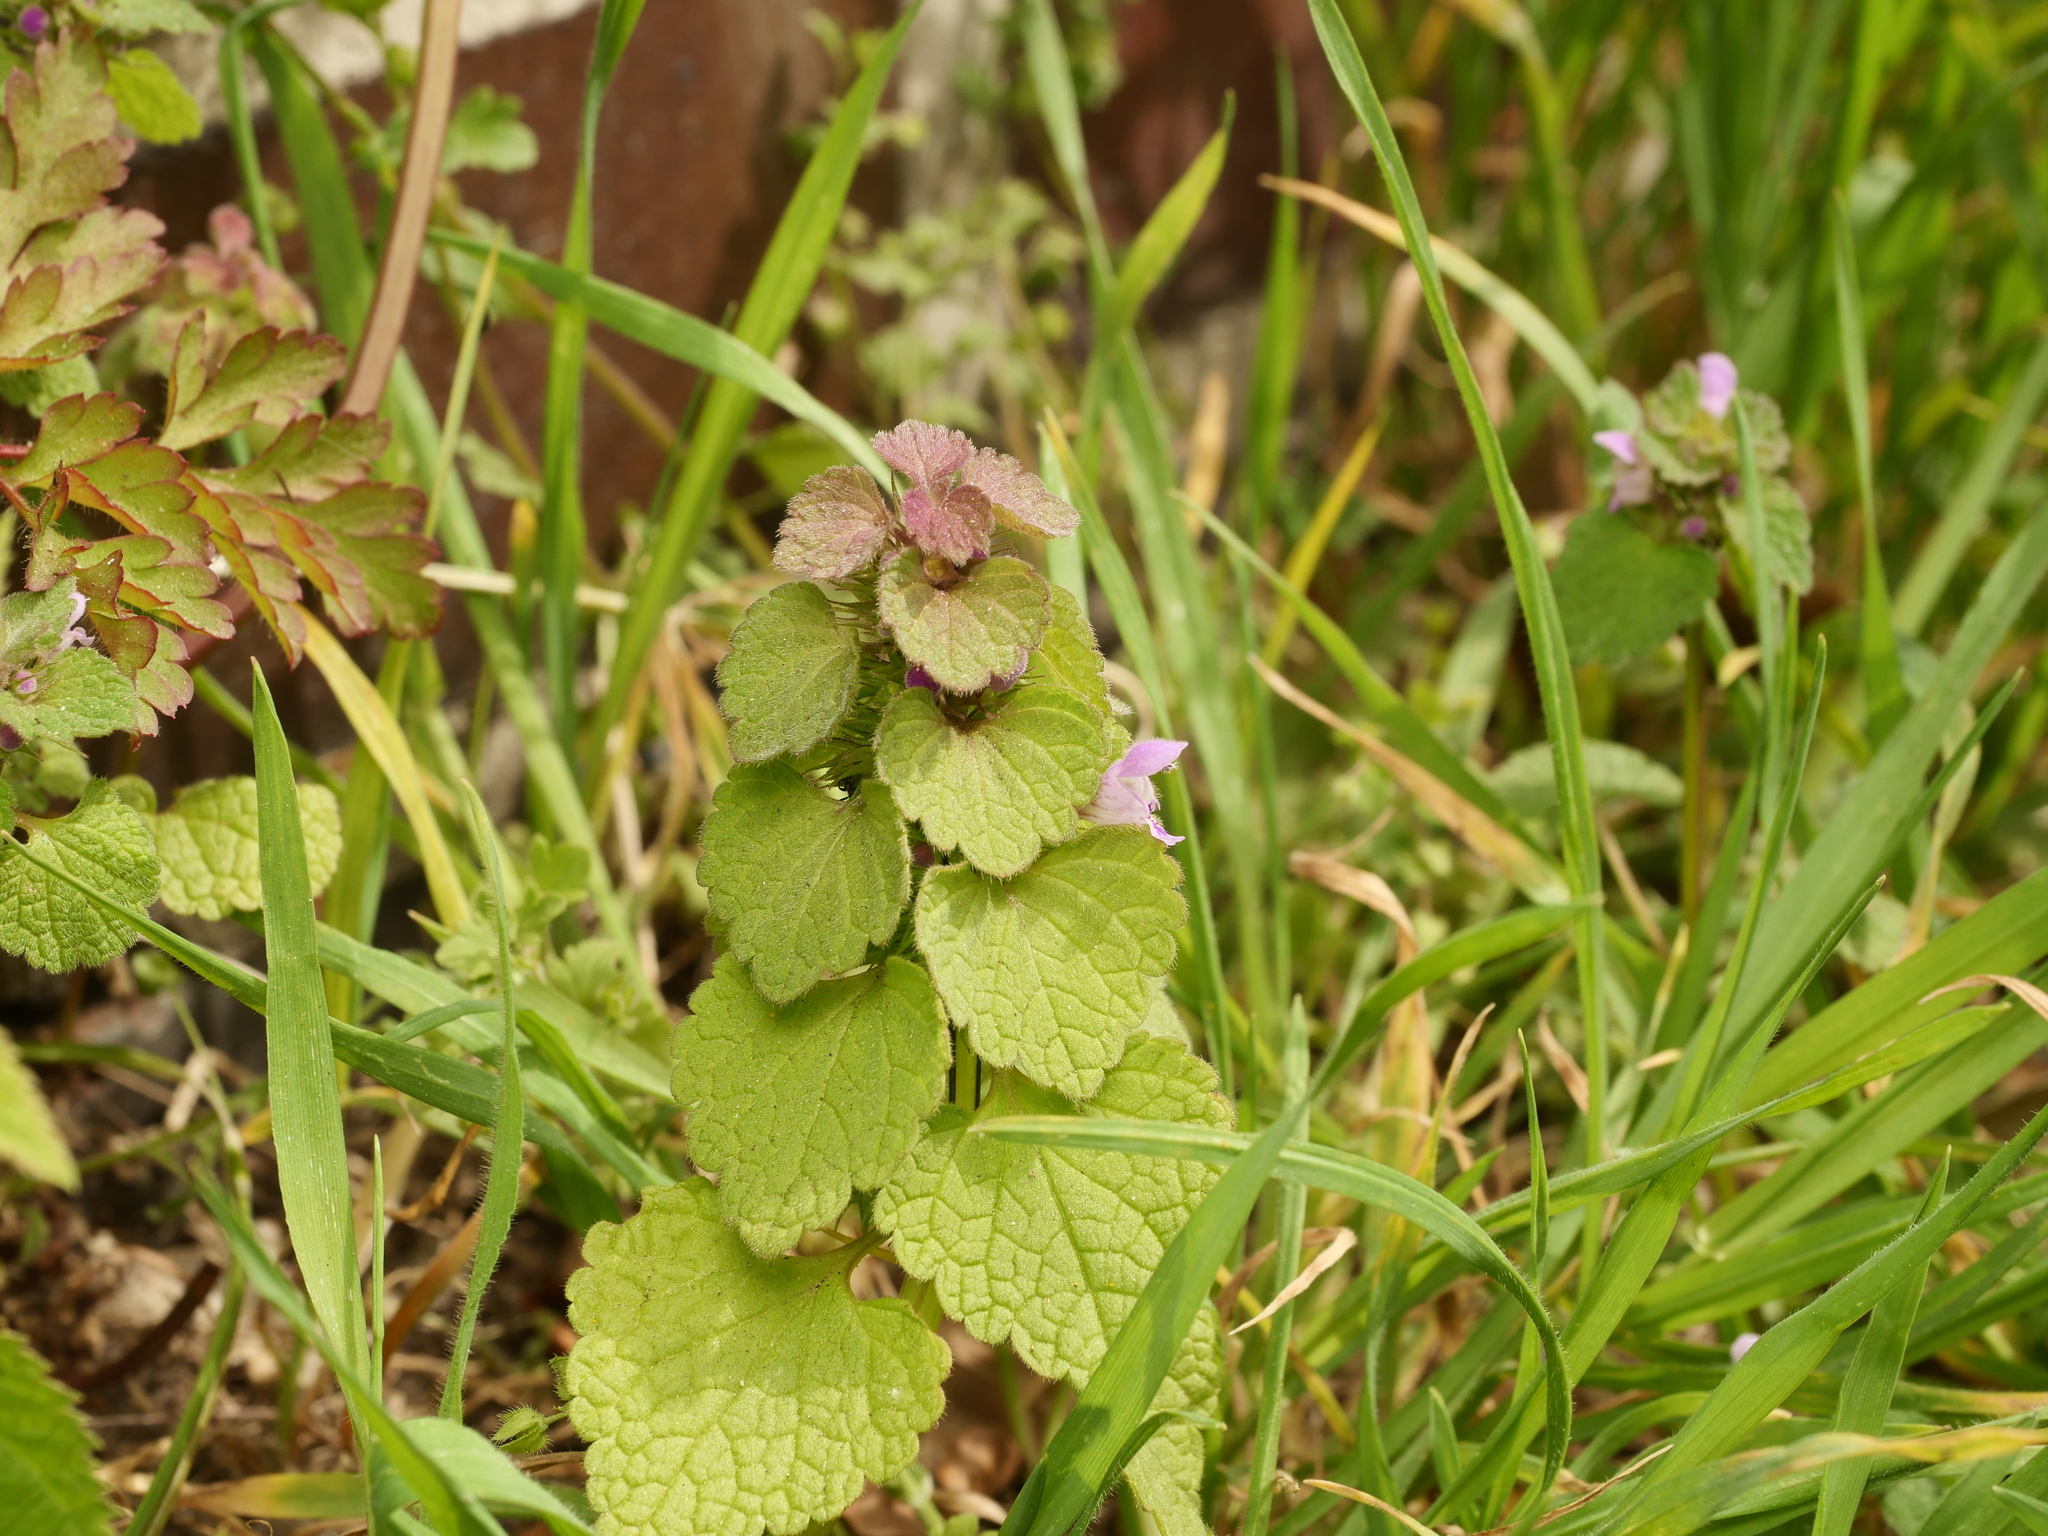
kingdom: Plantae
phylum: Tracheophyta
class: Magnoliopsida
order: Lamiales
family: Lamiaceae
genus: Lamium
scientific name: Lamium purpureum
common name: Red dead-nettle
